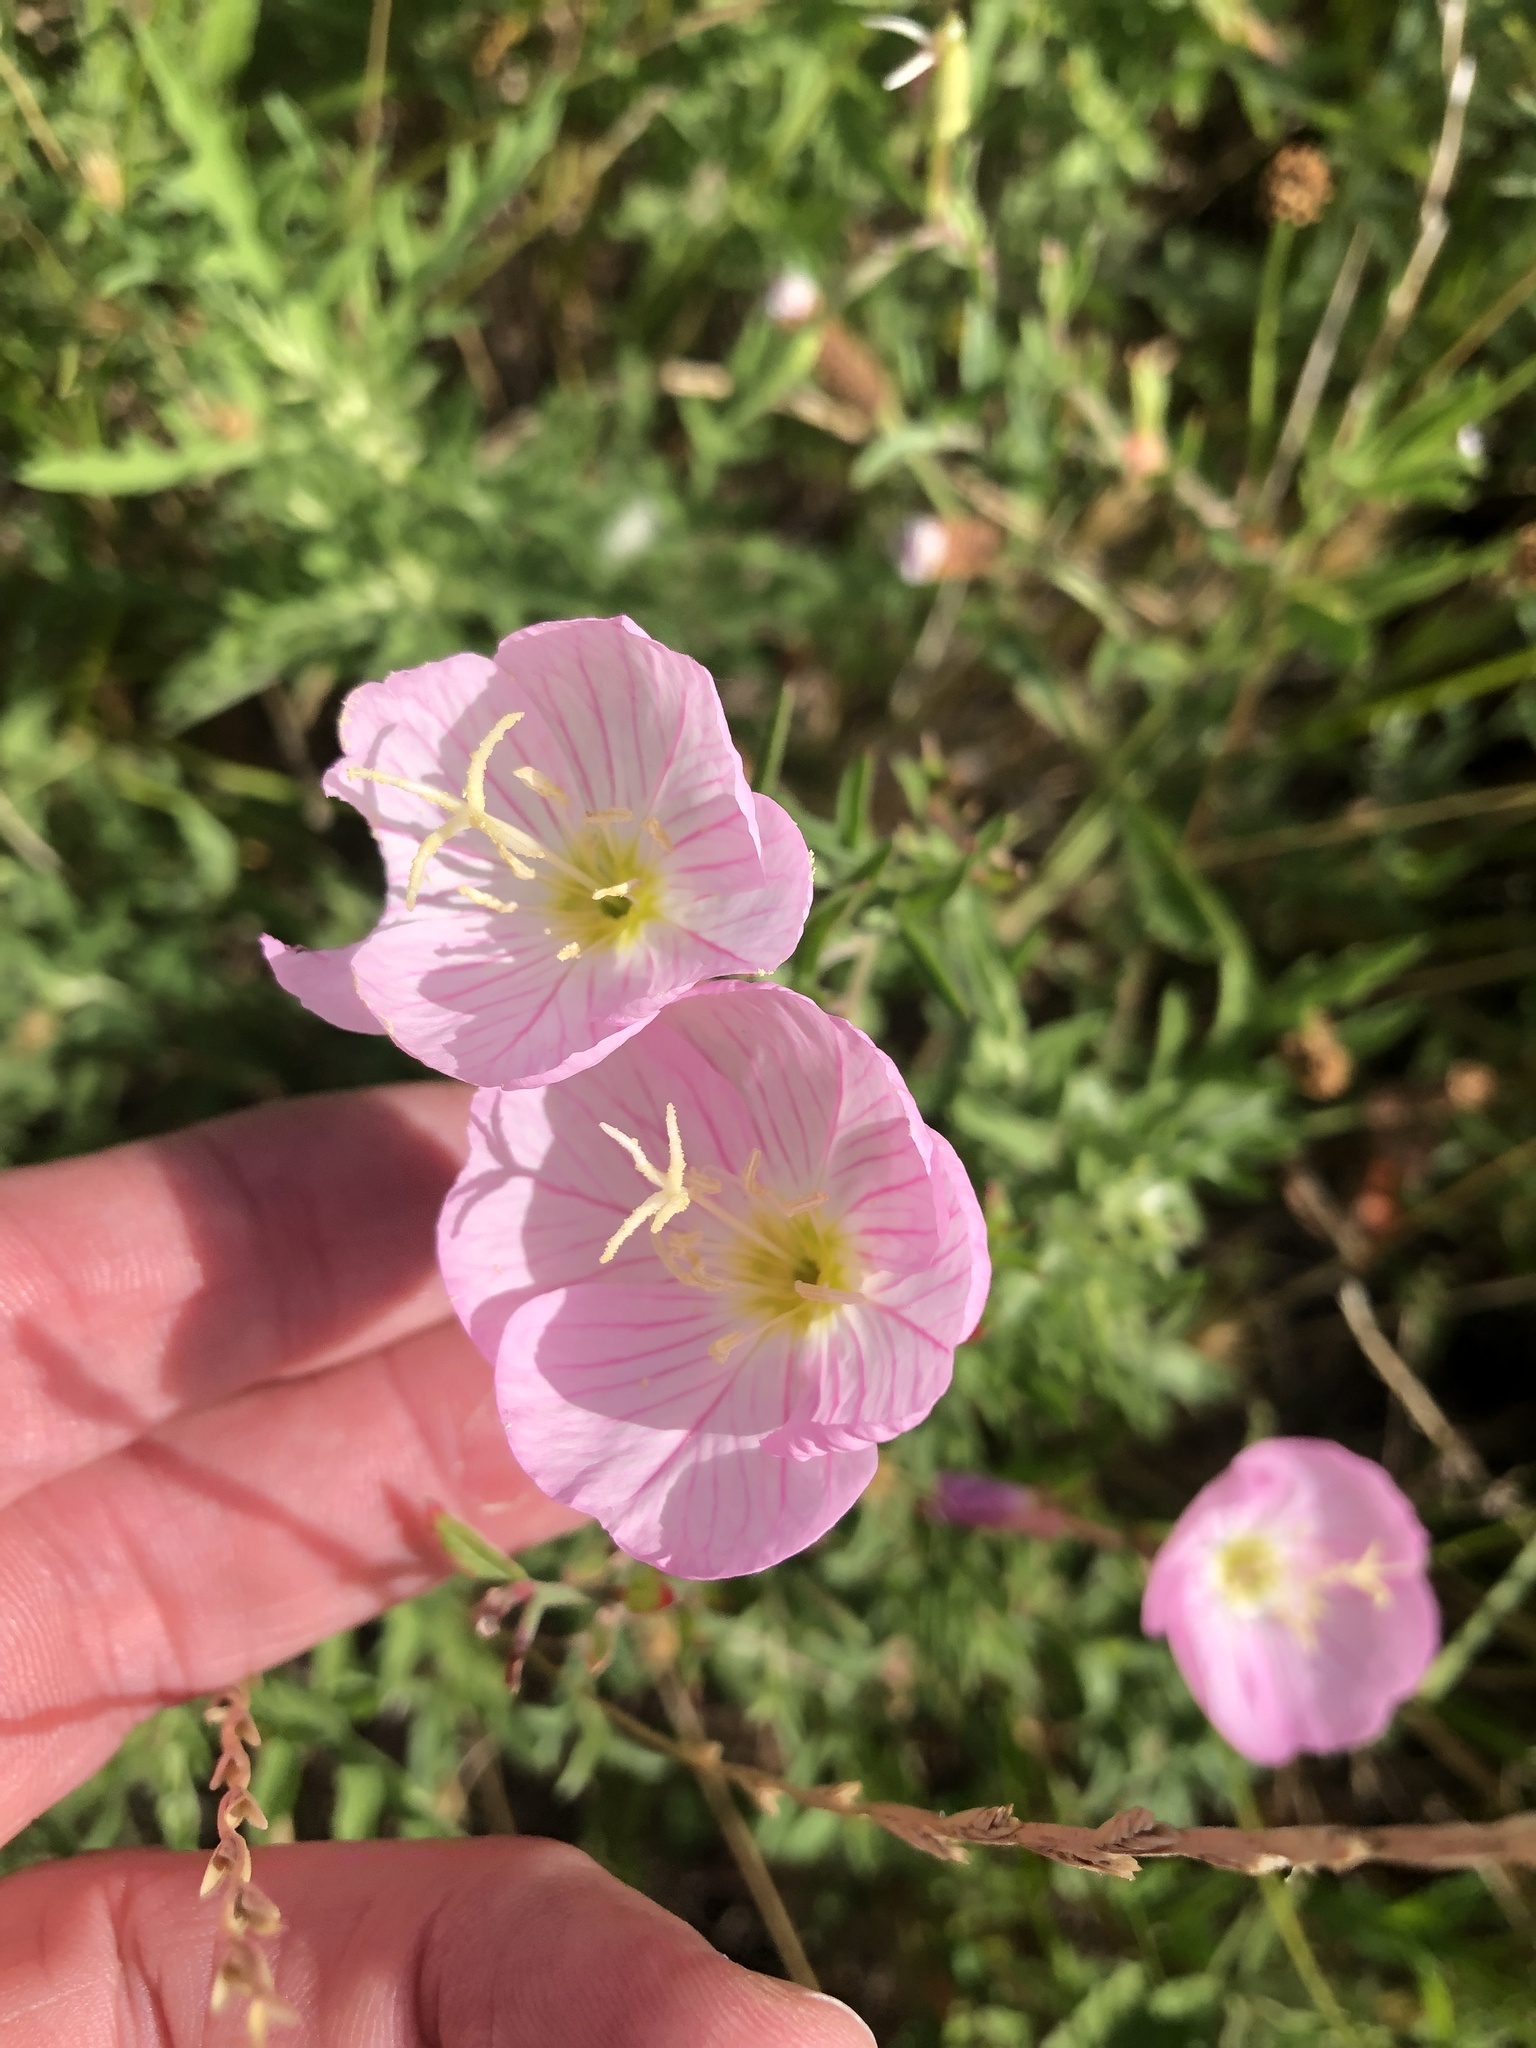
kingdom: Plantae
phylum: Tracheophyta
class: Magnoliopsida
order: Myrtales
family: Onagraceae
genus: Oenothera
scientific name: Oenothera speciosa
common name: White evening-primrose
